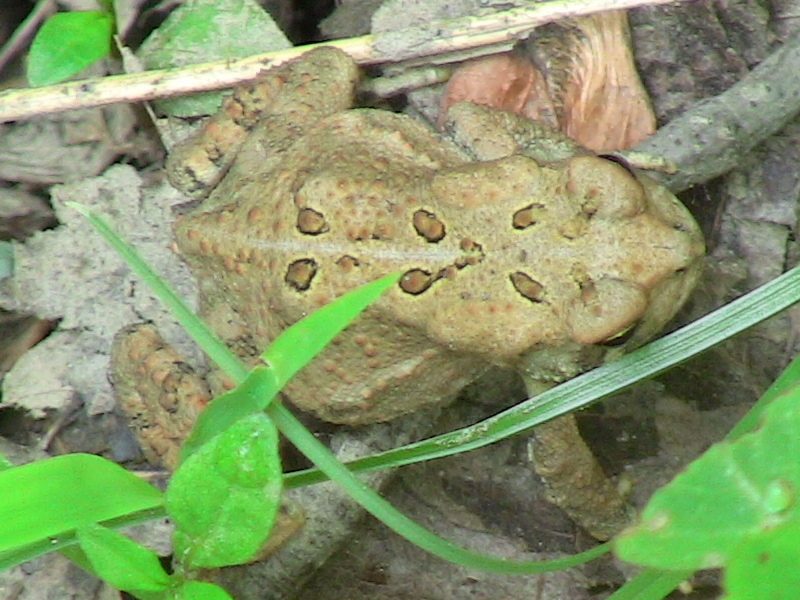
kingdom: Animalia
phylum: Chordata
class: Amphibia
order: Anura
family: Bufonidae
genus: Anaxyrus
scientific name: Anaxyrus americanus
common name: American toad
